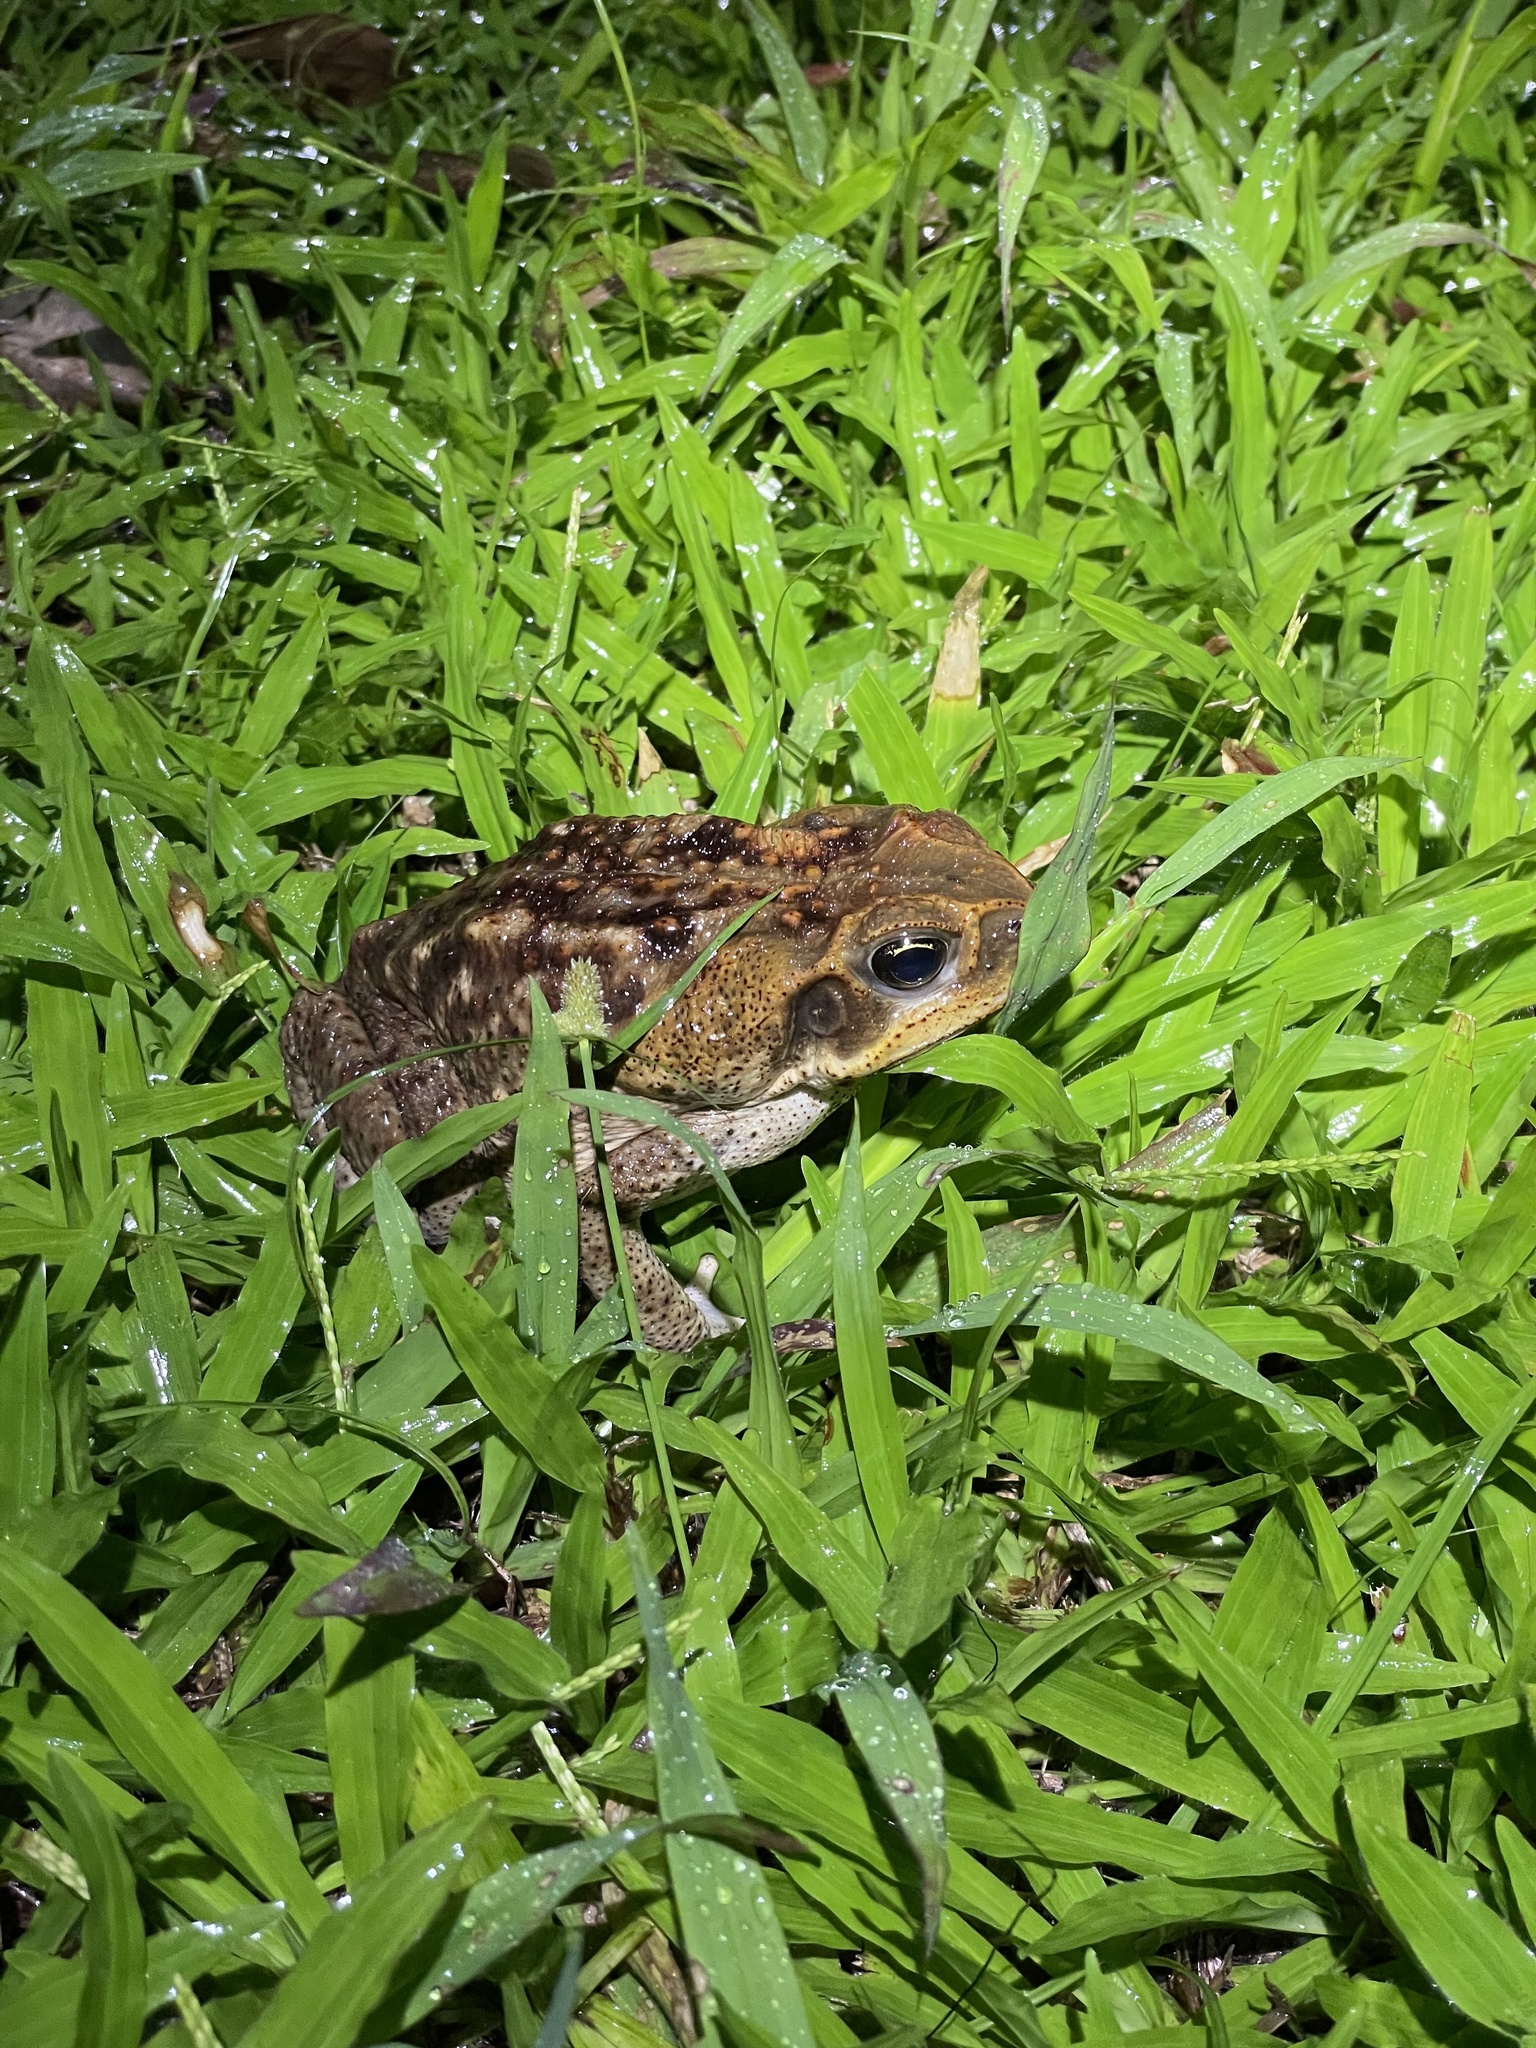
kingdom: Animalia
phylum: Chordata
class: Amphibia
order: Anura
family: Bufonidae
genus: Rhinella
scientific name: Rhinella horribilis
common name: Mesoamerican cane toad
